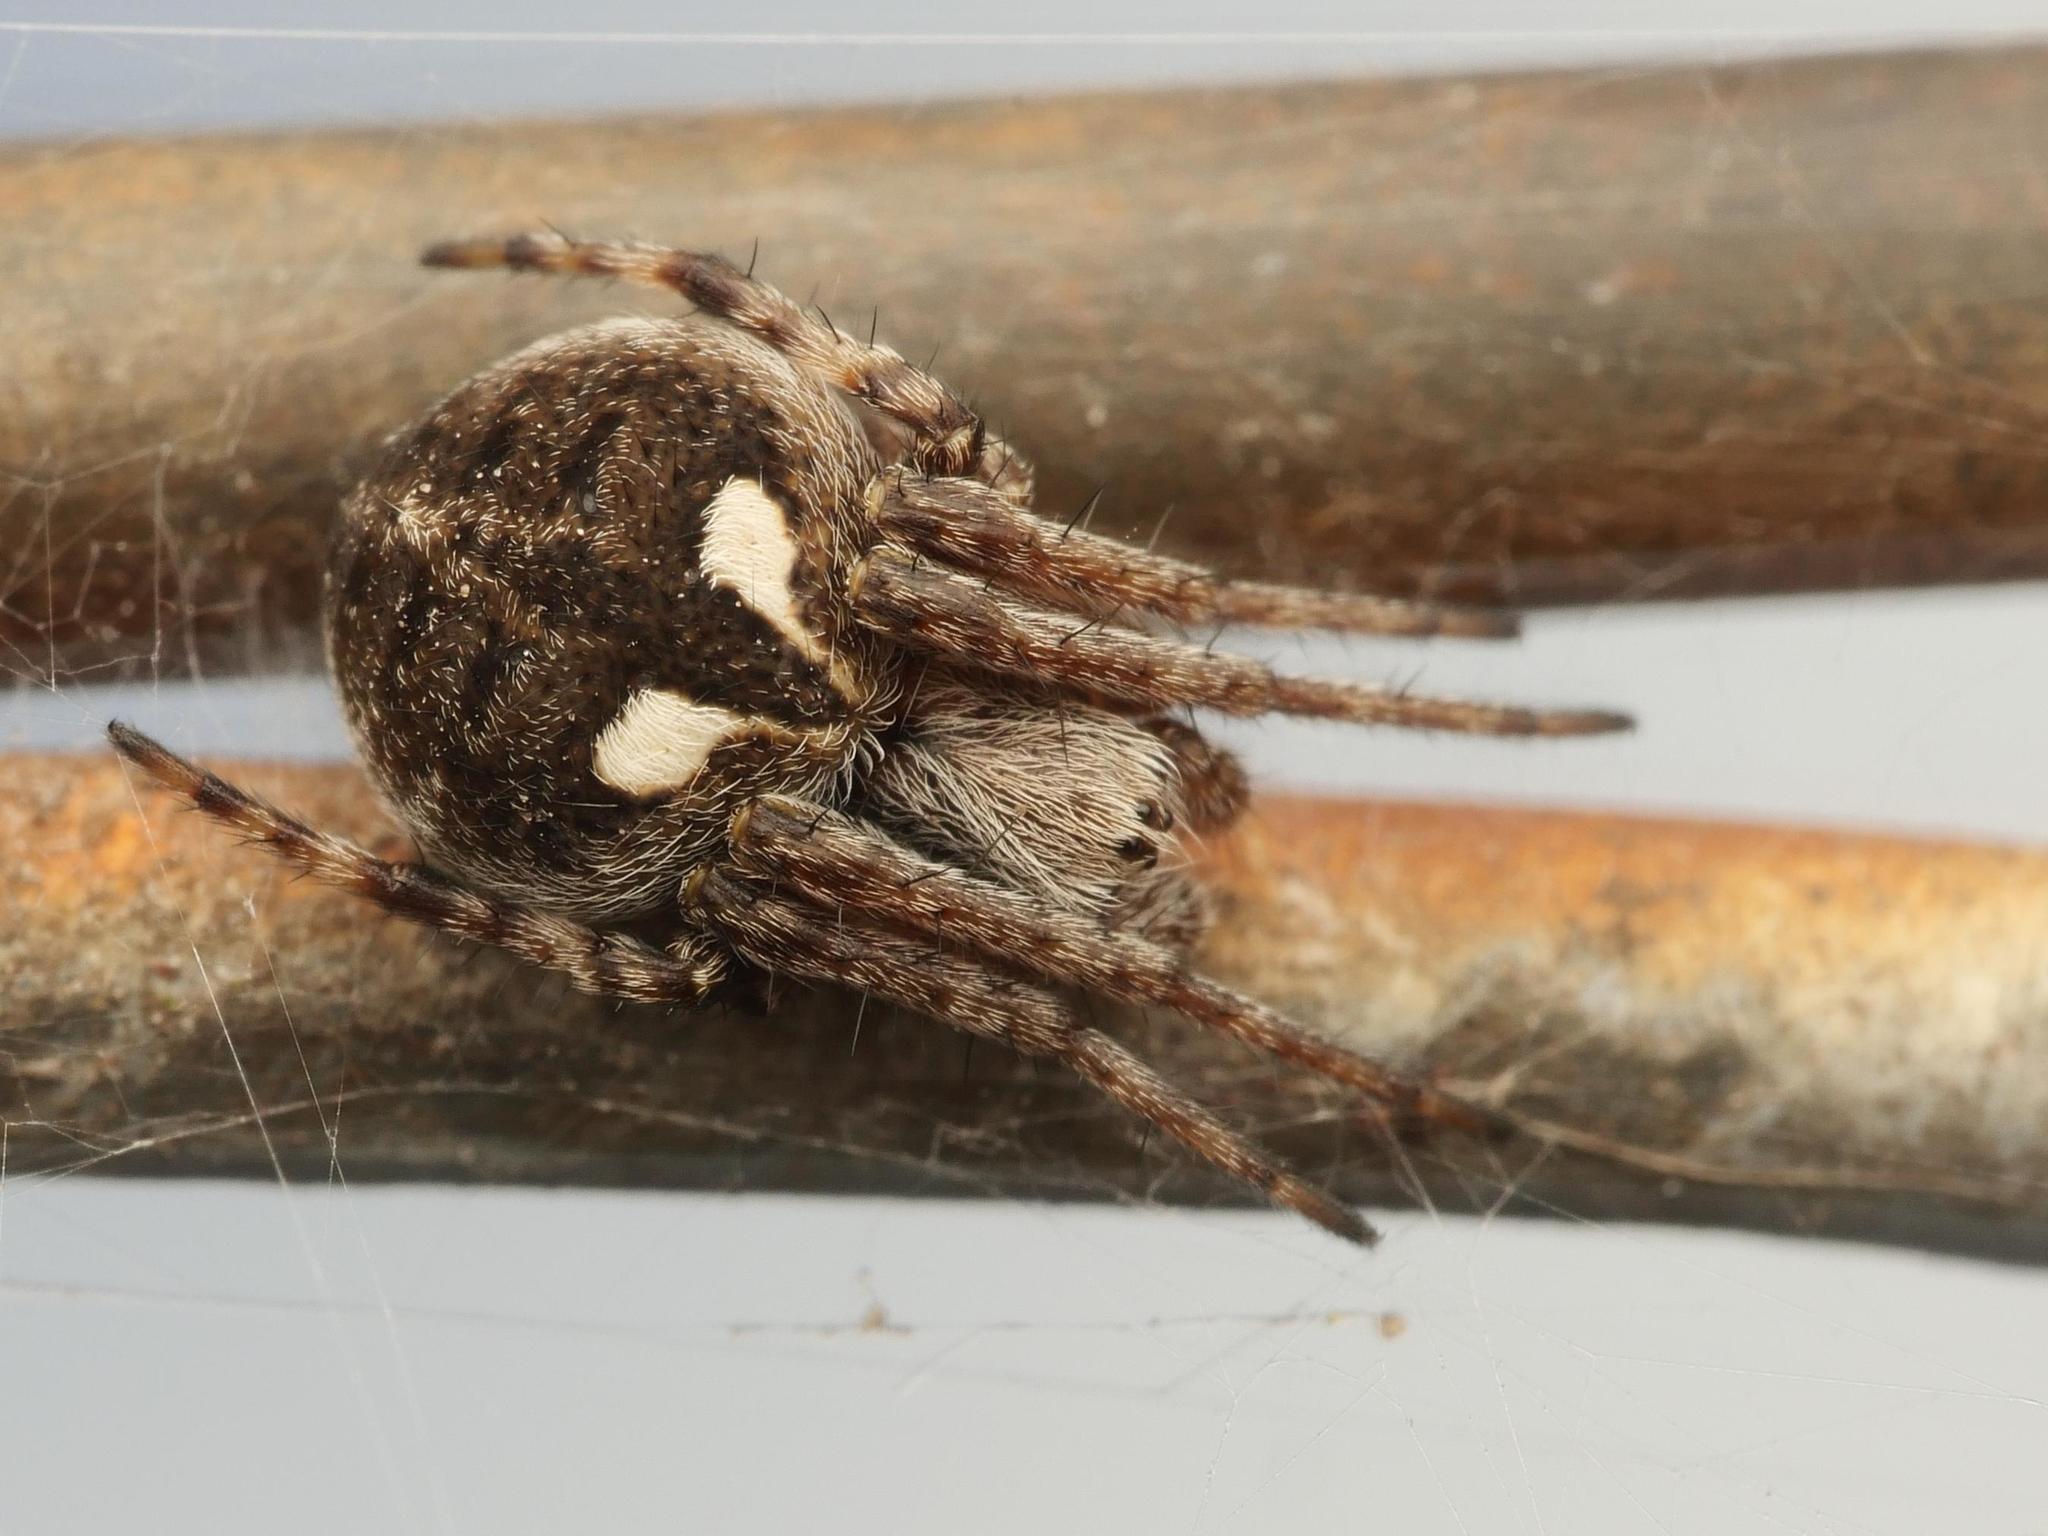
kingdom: Animalia
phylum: Arthropoda
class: Arachnida
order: Araneae
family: Araneidae
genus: Agalenatea
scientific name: Agalenatea redii
